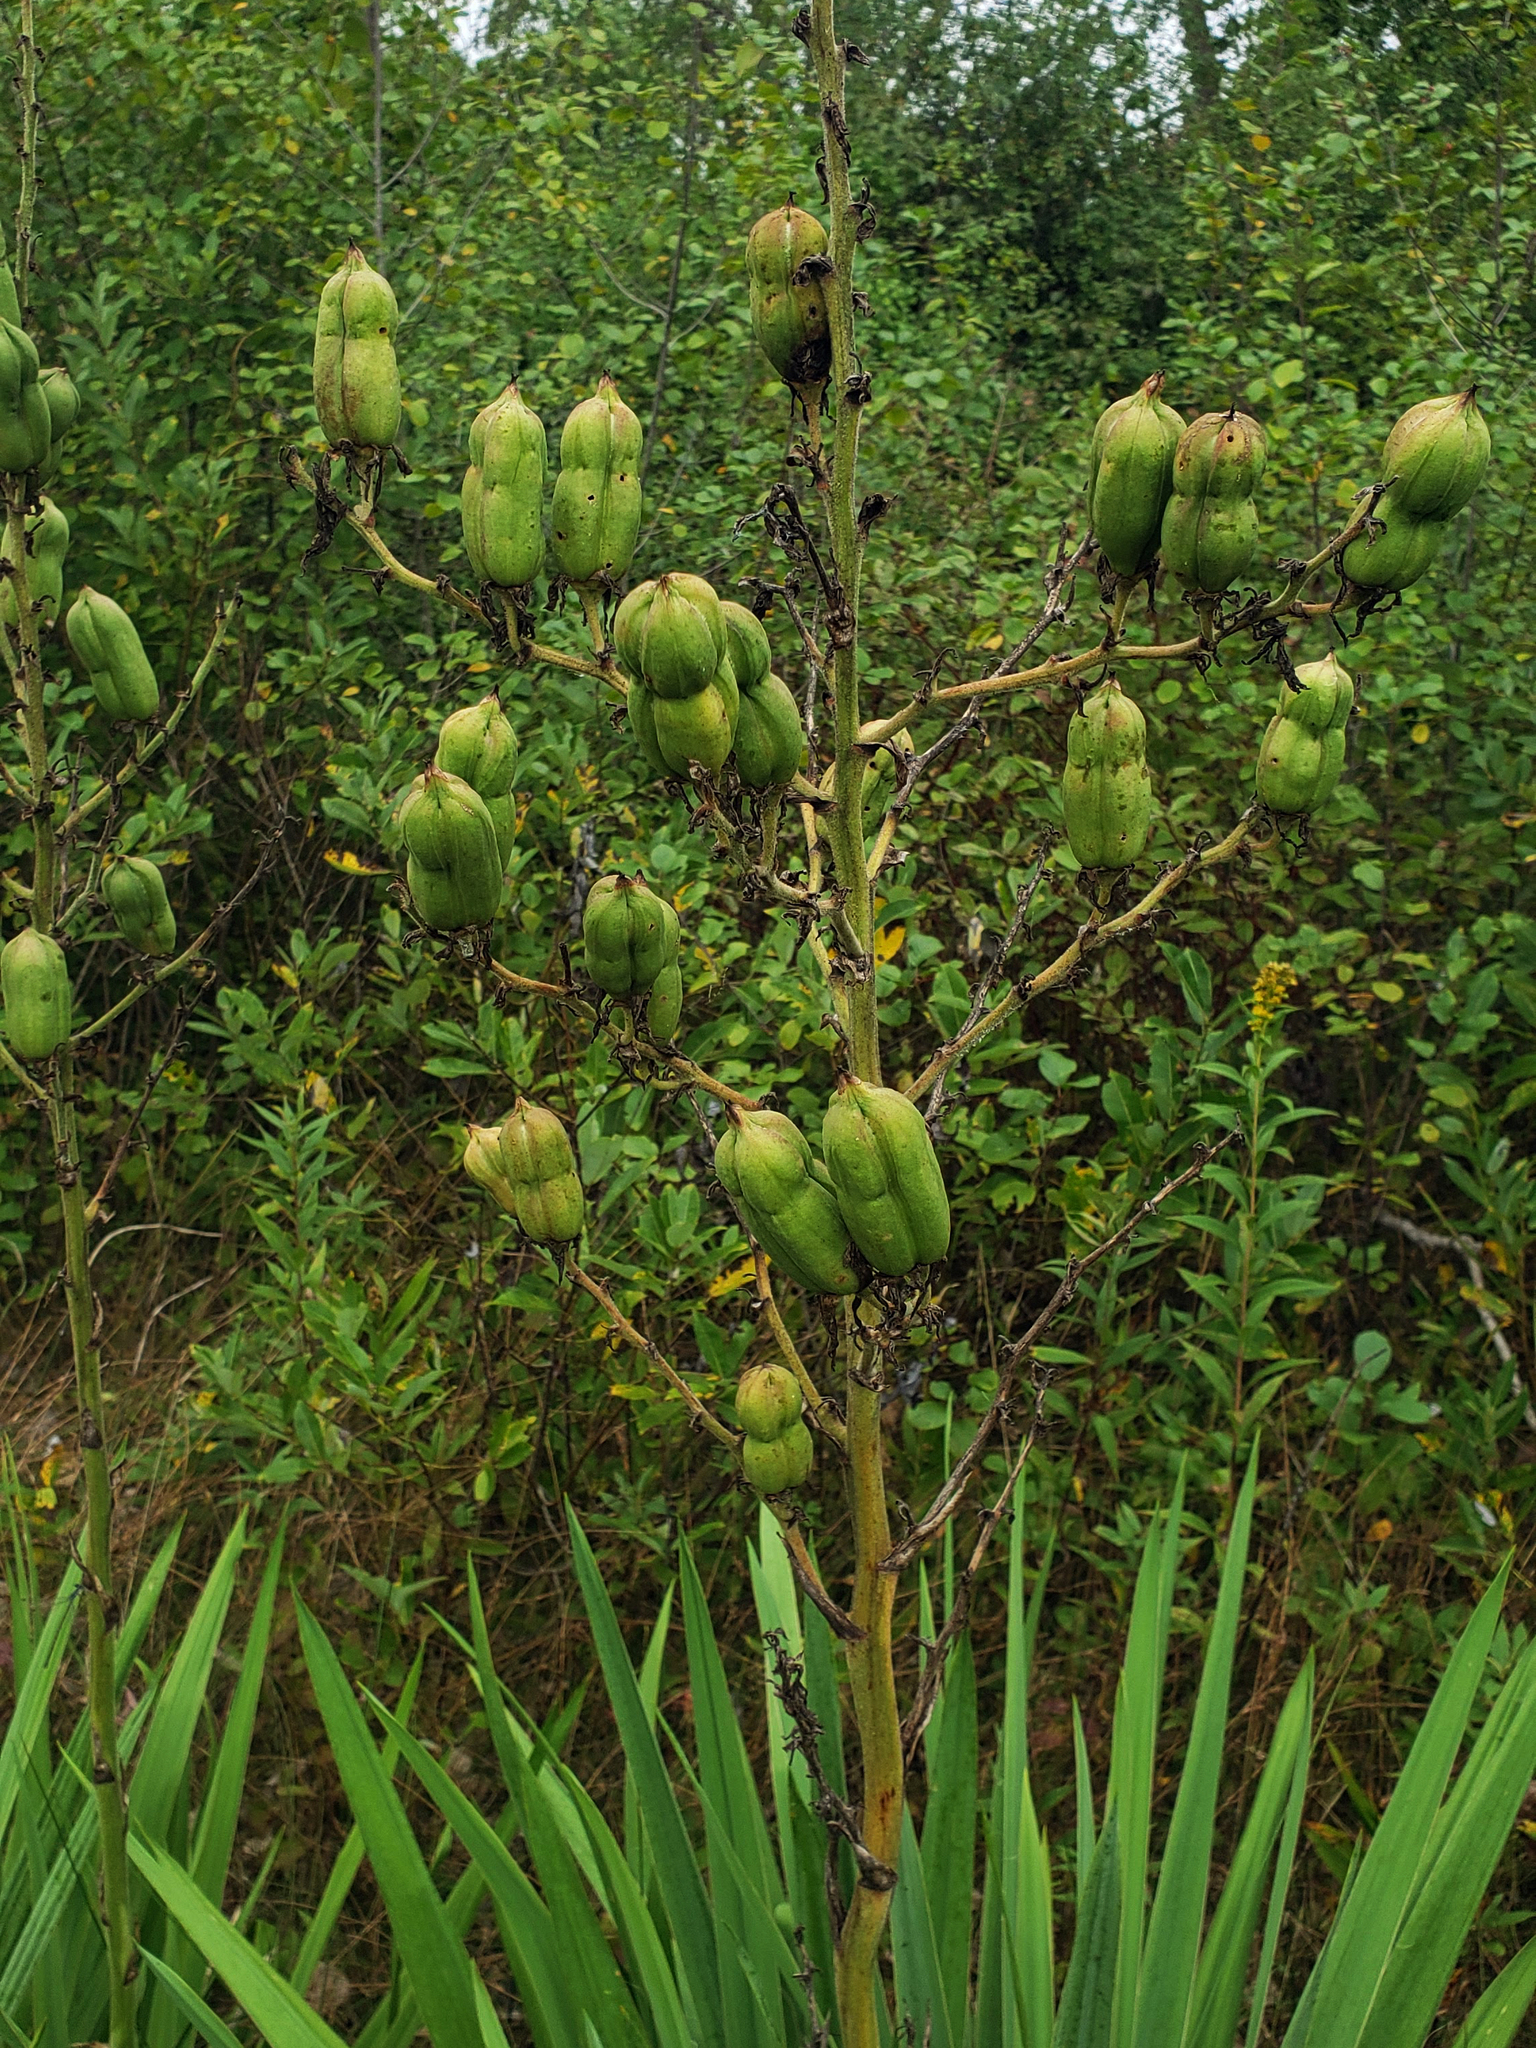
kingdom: Plantae
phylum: Tracheophyta
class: Liliopsida
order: Asparagales
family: Asparagaceae
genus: Yucca
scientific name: Yucca flaccida
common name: Adam's-needle
